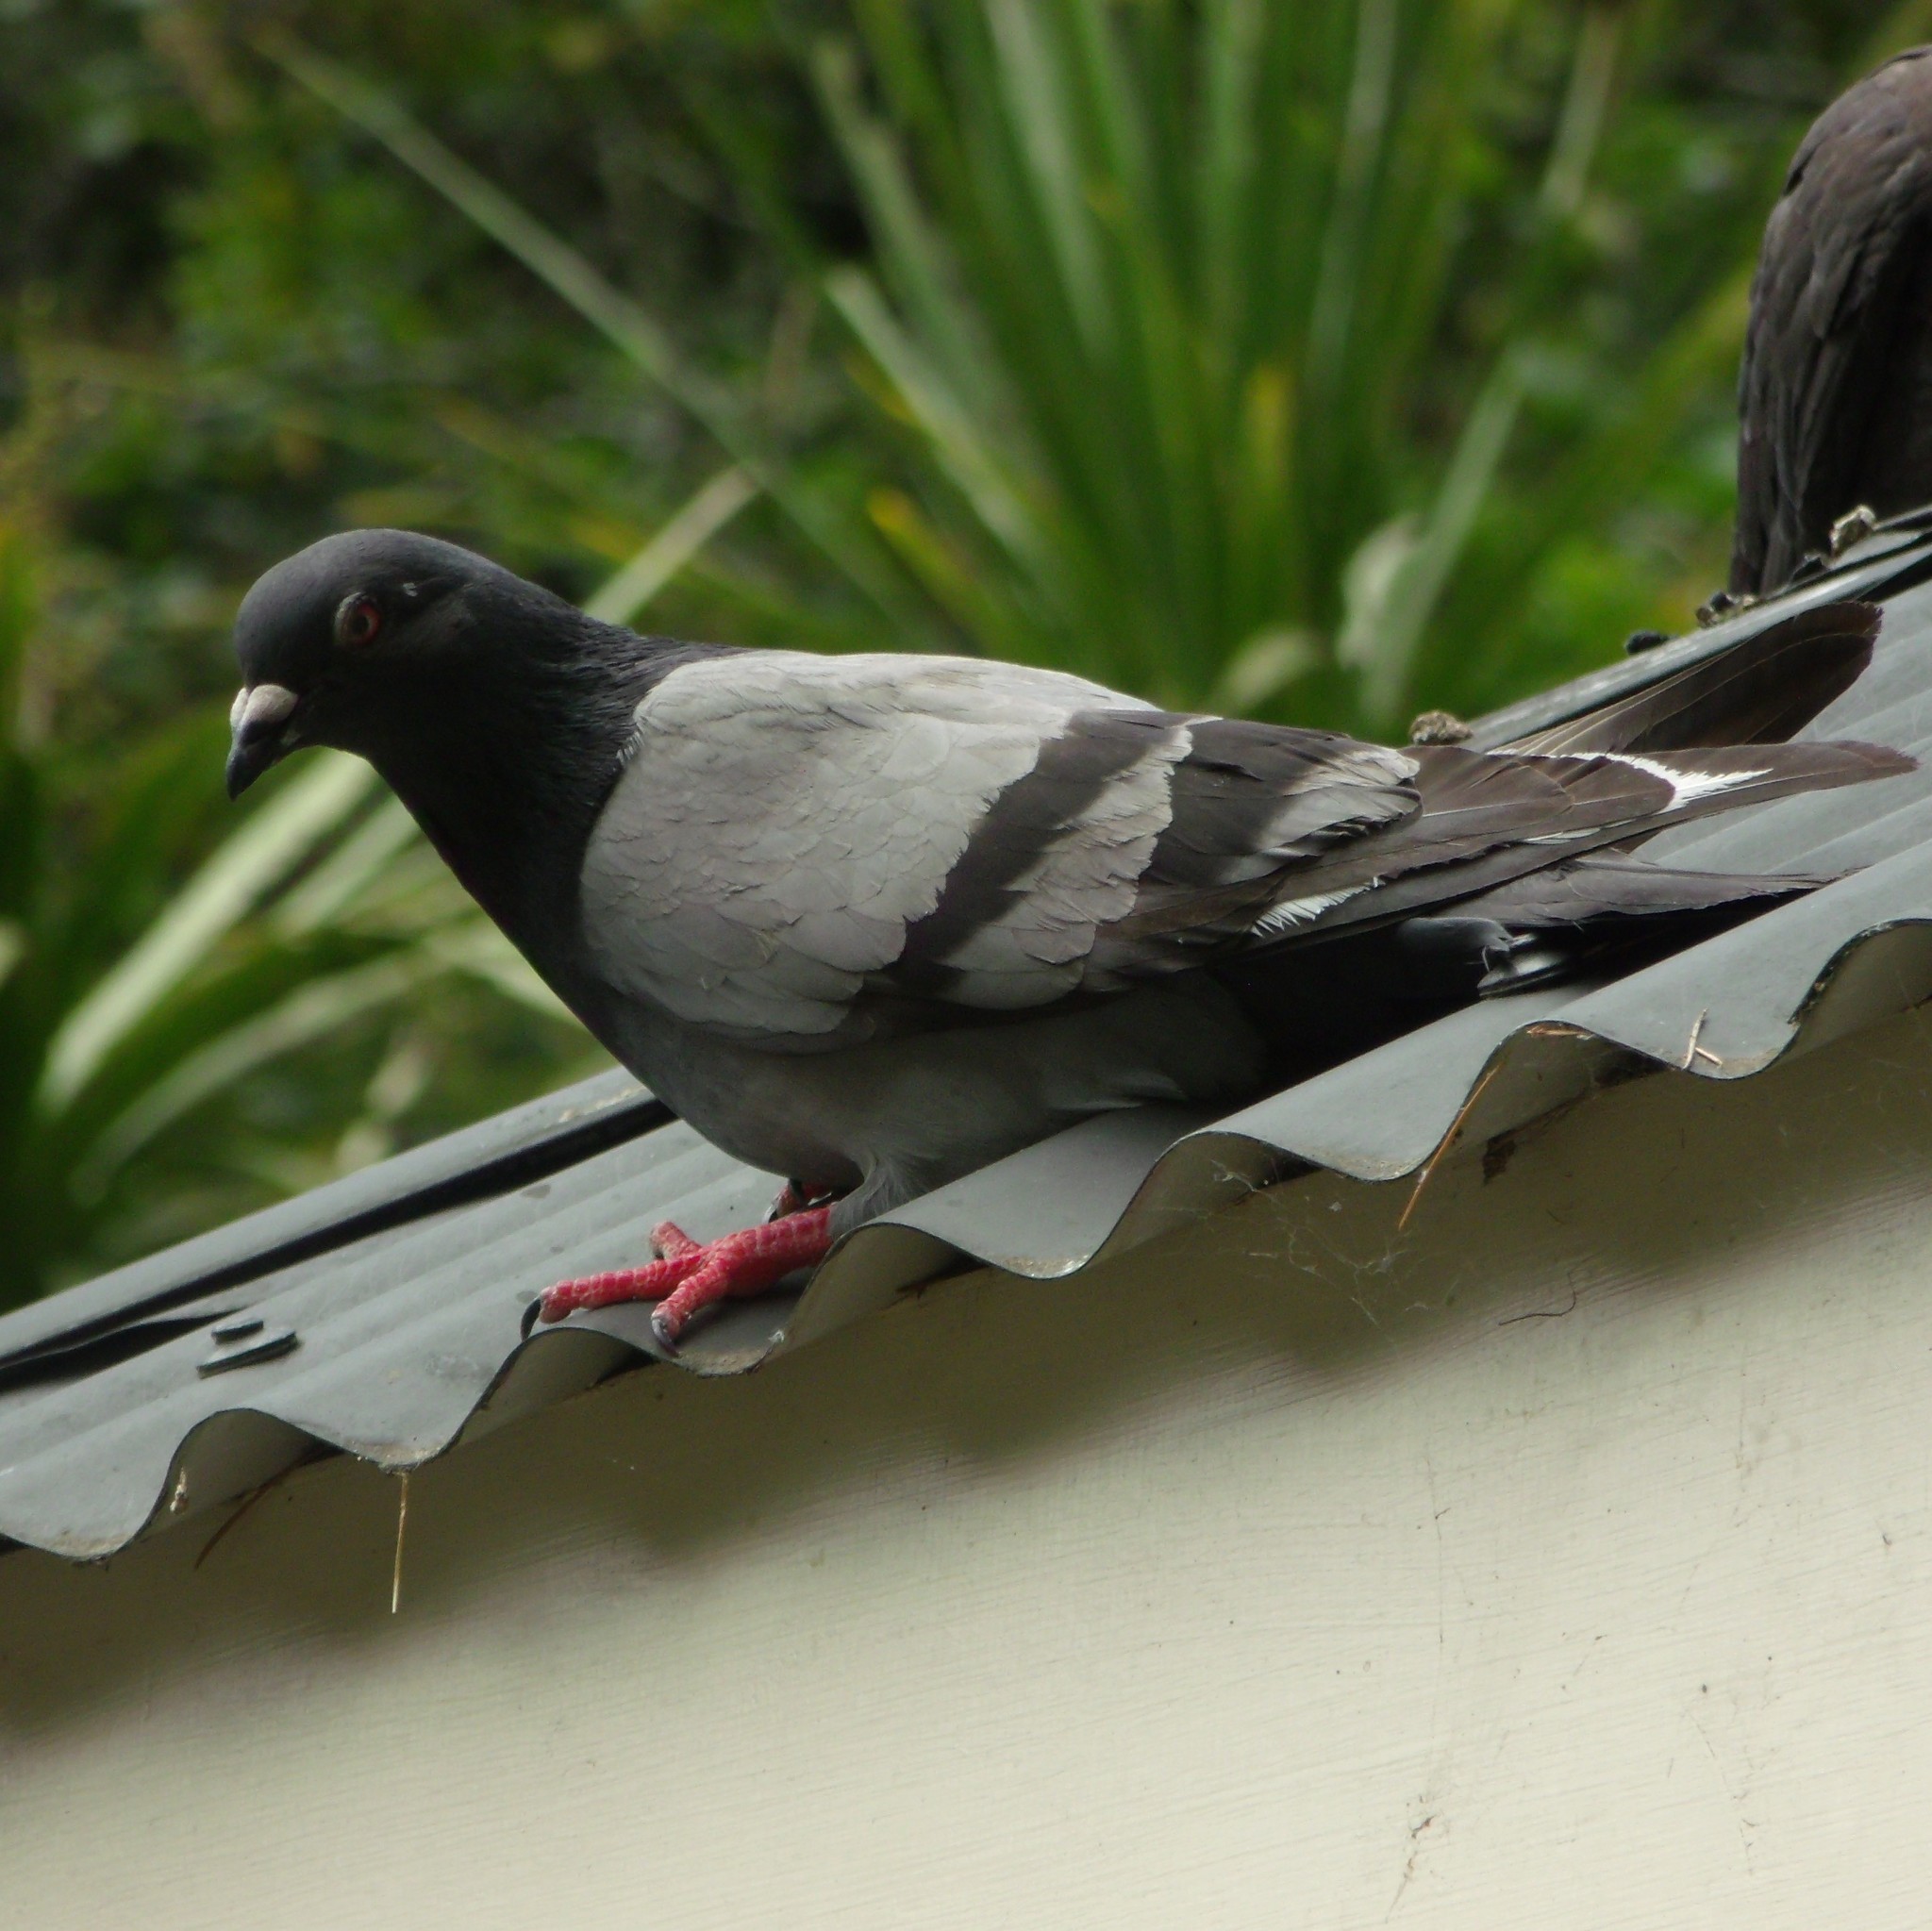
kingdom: Animalia
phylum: Chordata
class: Aves
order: Columbiformes
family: Columbidae
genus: Columba
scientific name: Columba livia
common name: Rock pigeon
